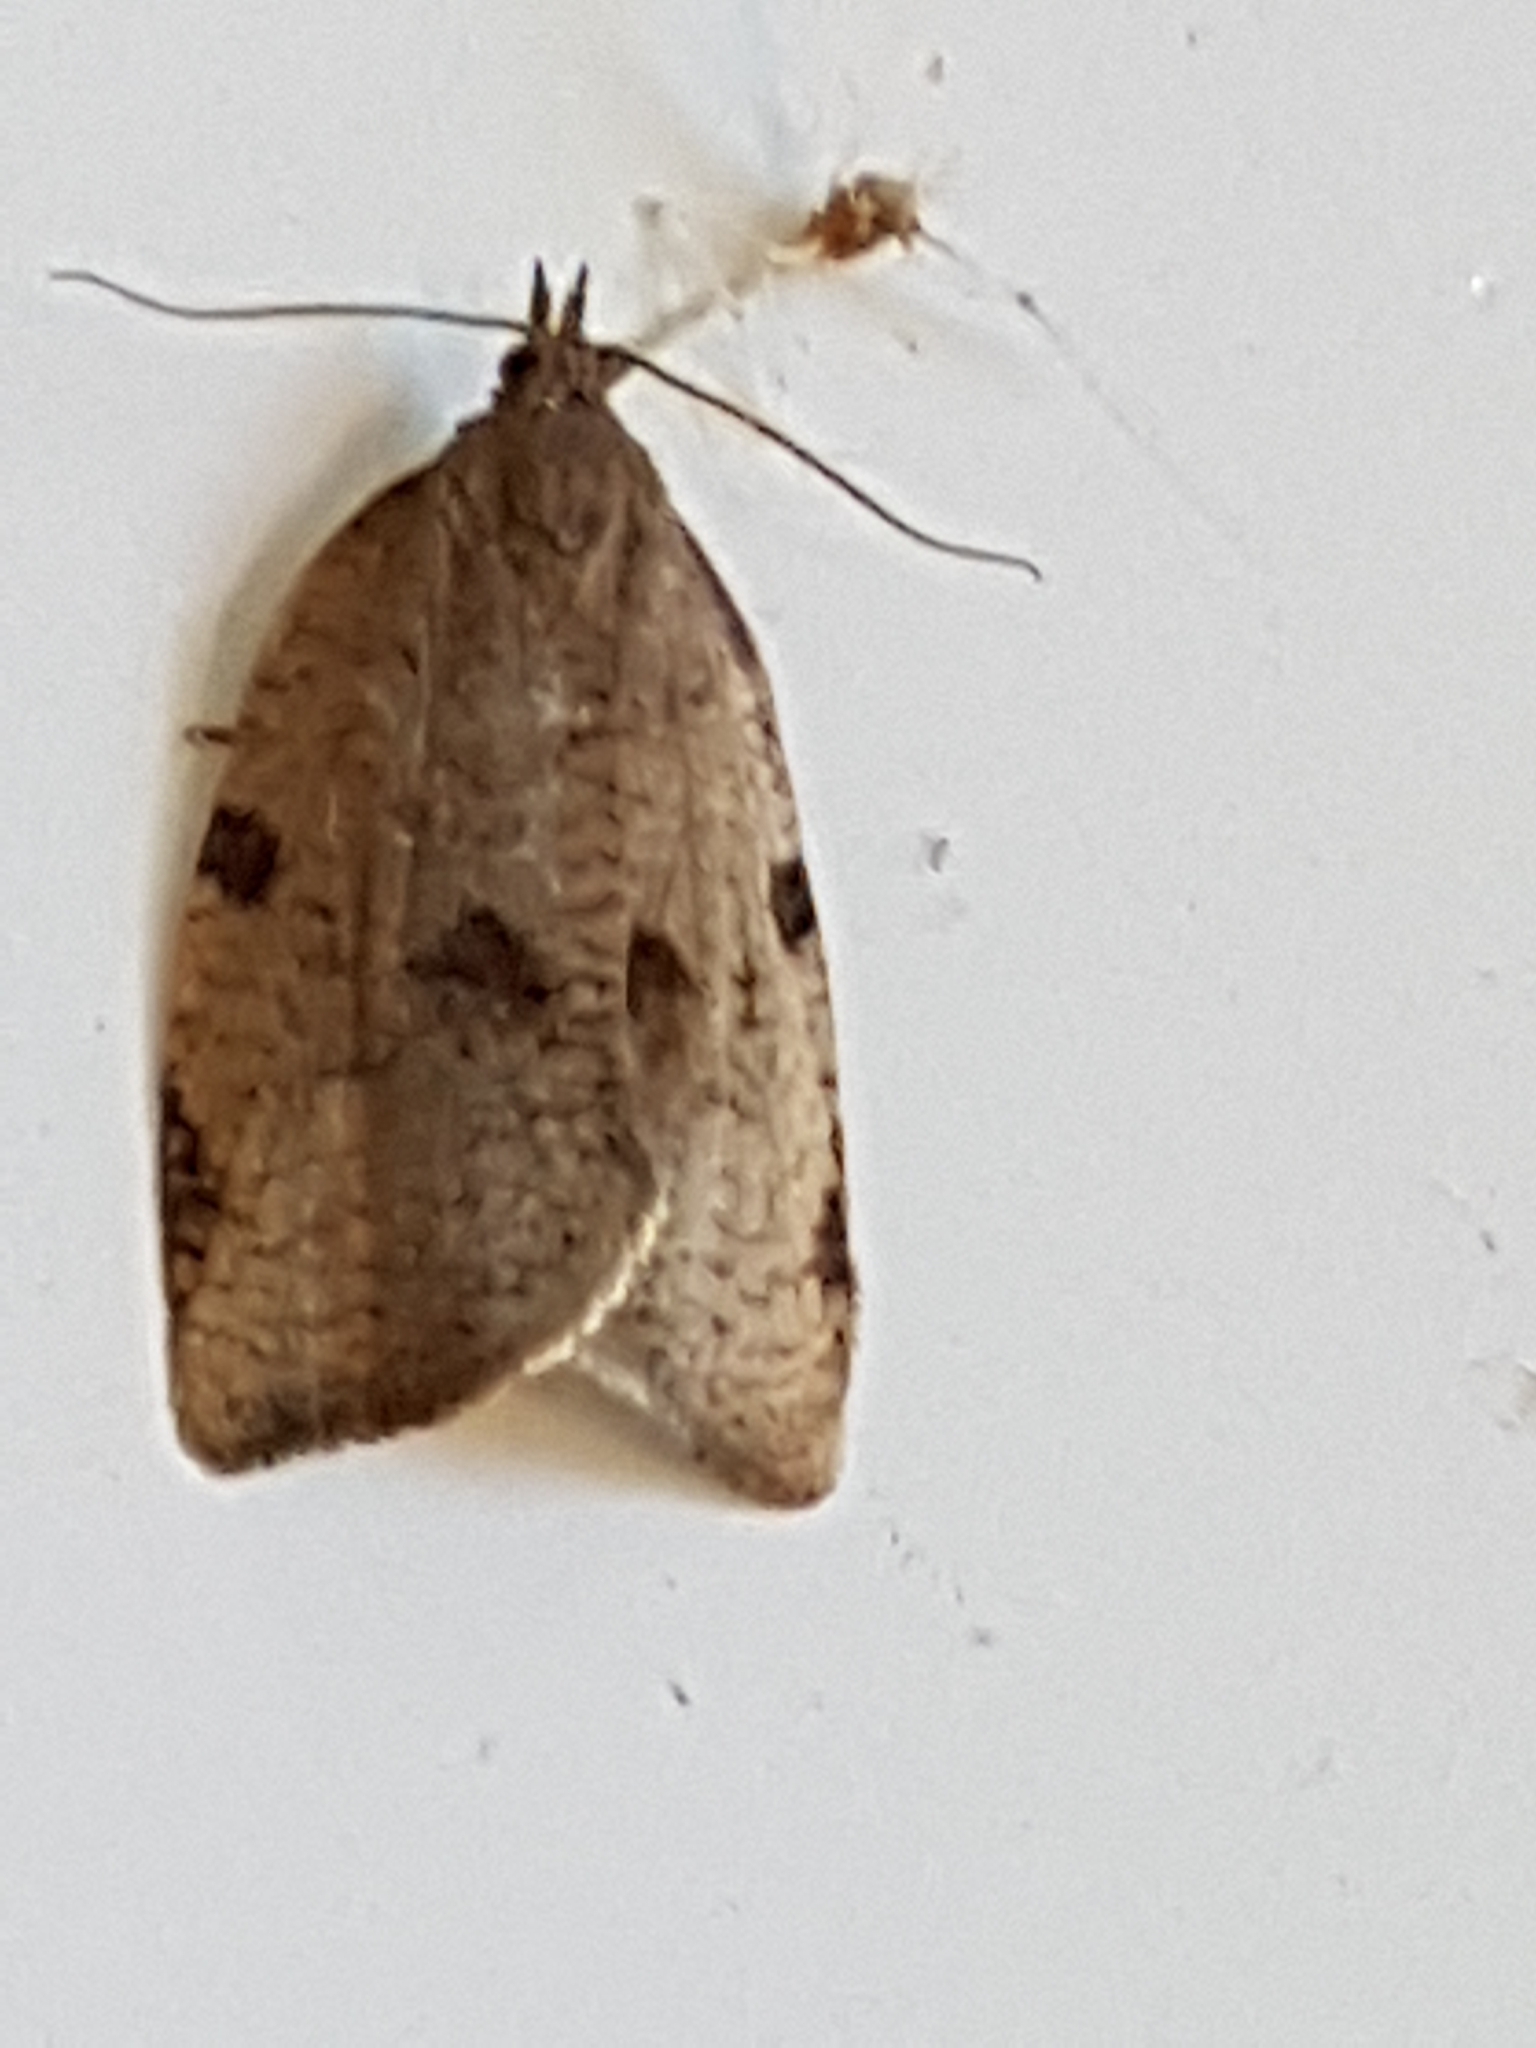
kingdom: Animalia
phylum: Arthropoda
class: Insecta
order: Lepidoptera
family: Tortricidae
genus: Lozotaenia
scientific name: Lozotaenia forsterana
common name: Large ivy twist
